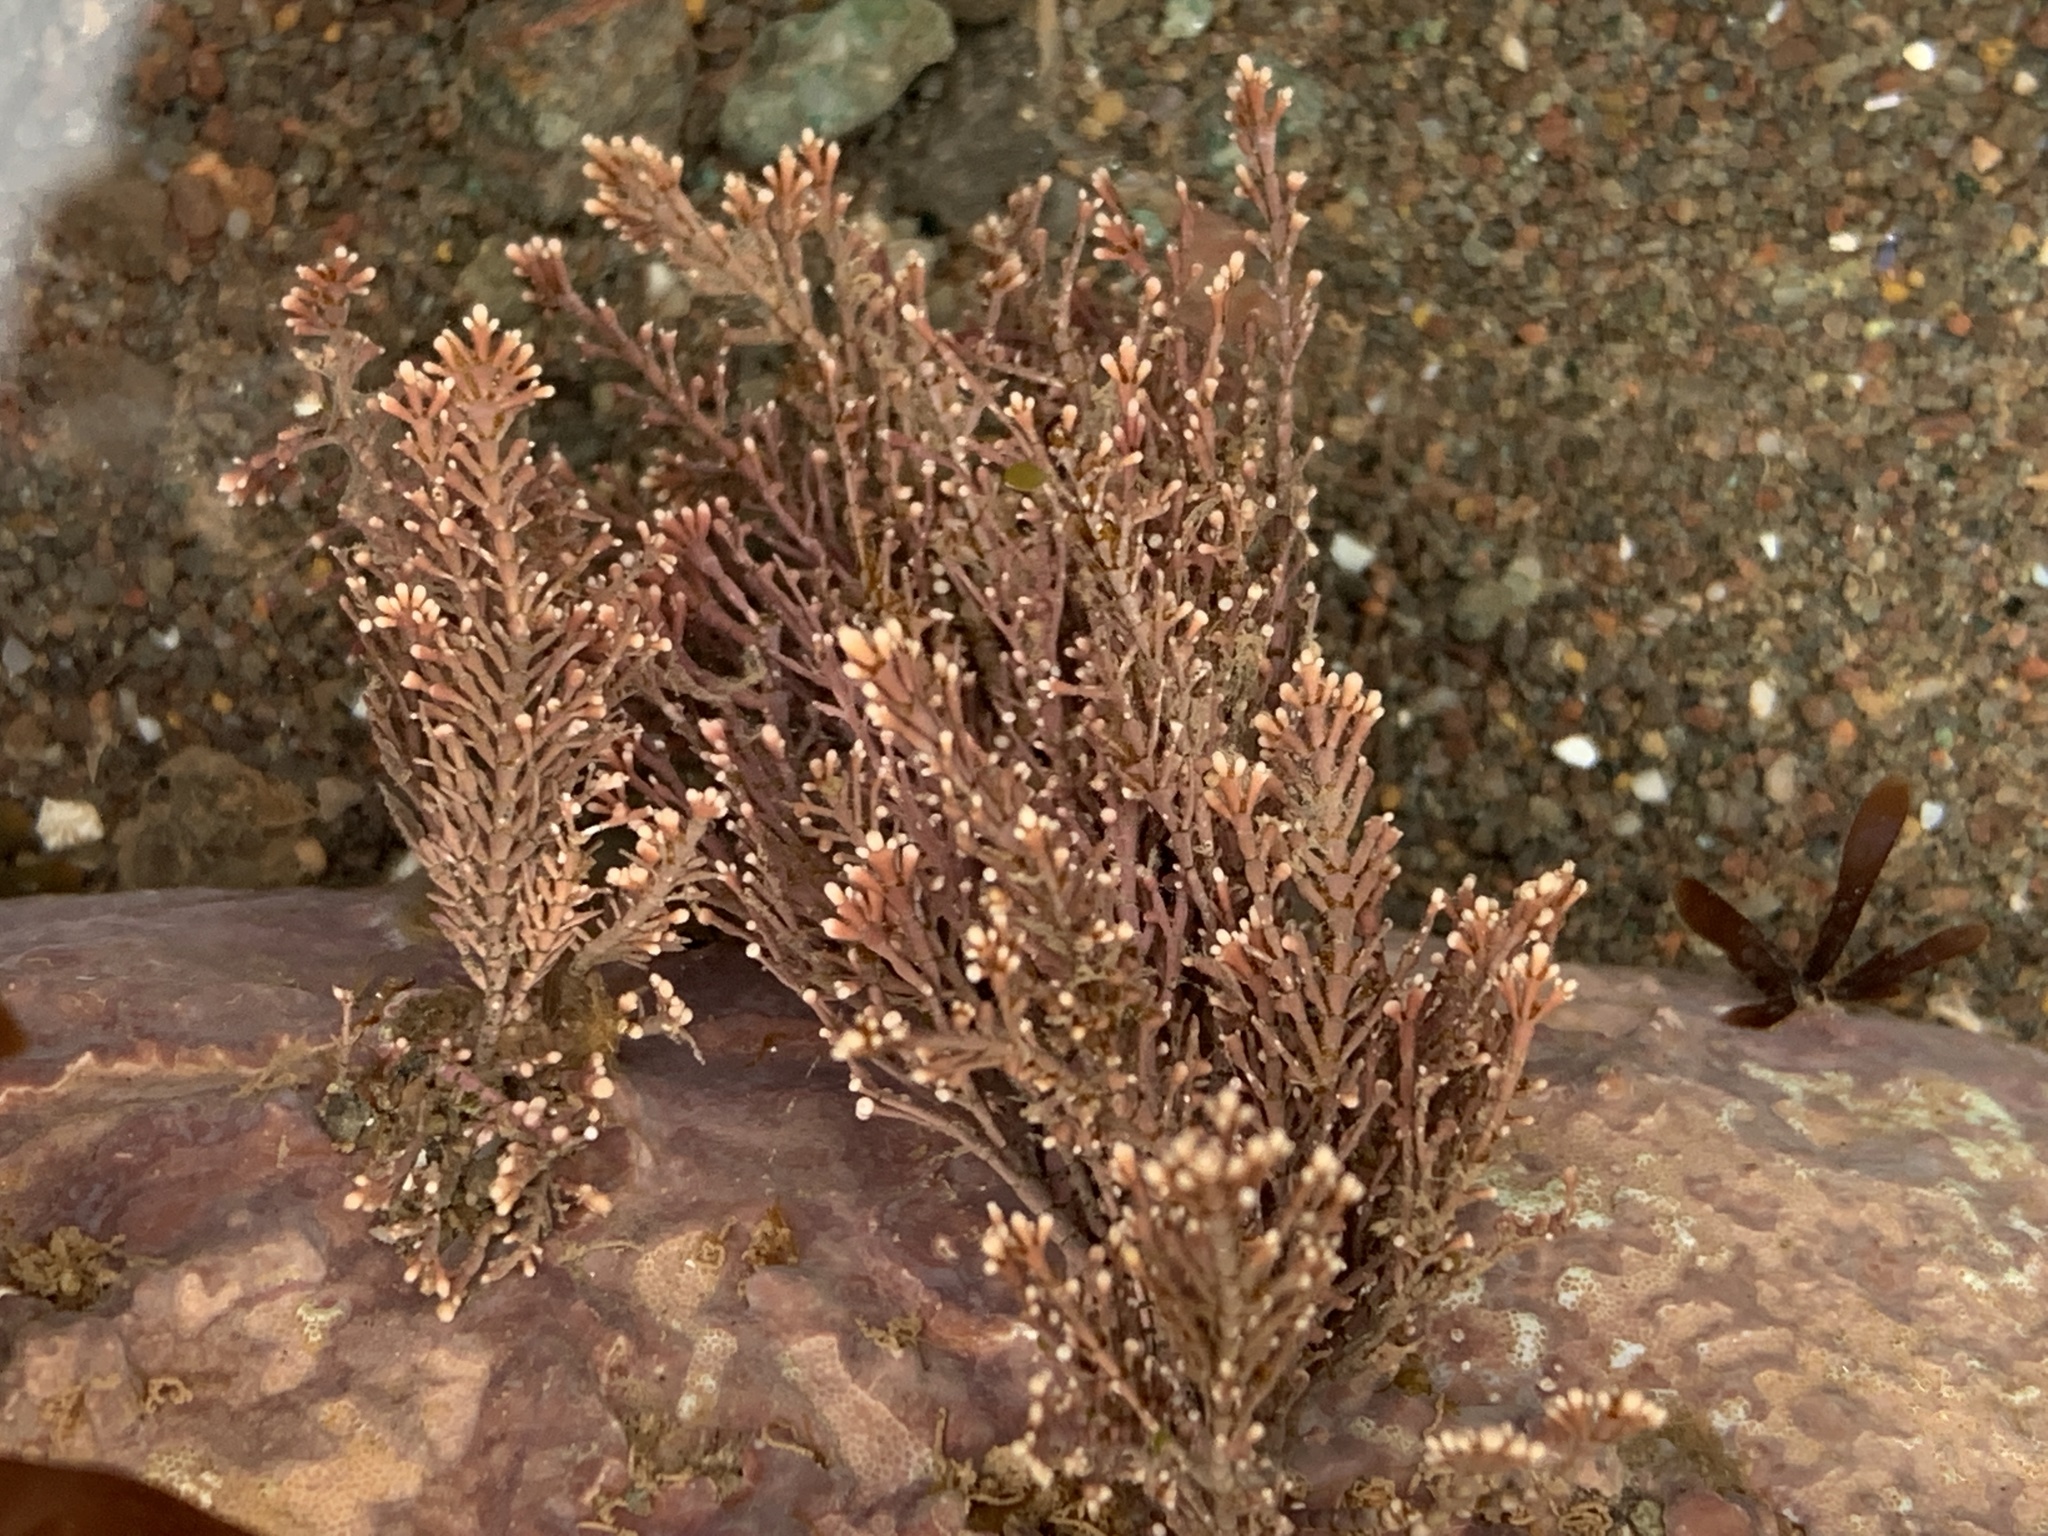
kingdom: Plantae
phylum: Rhodophyta
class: Florideophyceae
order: Corallinales
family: Corallinaceae
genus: Corallina
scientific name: Corallina officinalis
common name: Coral weed
